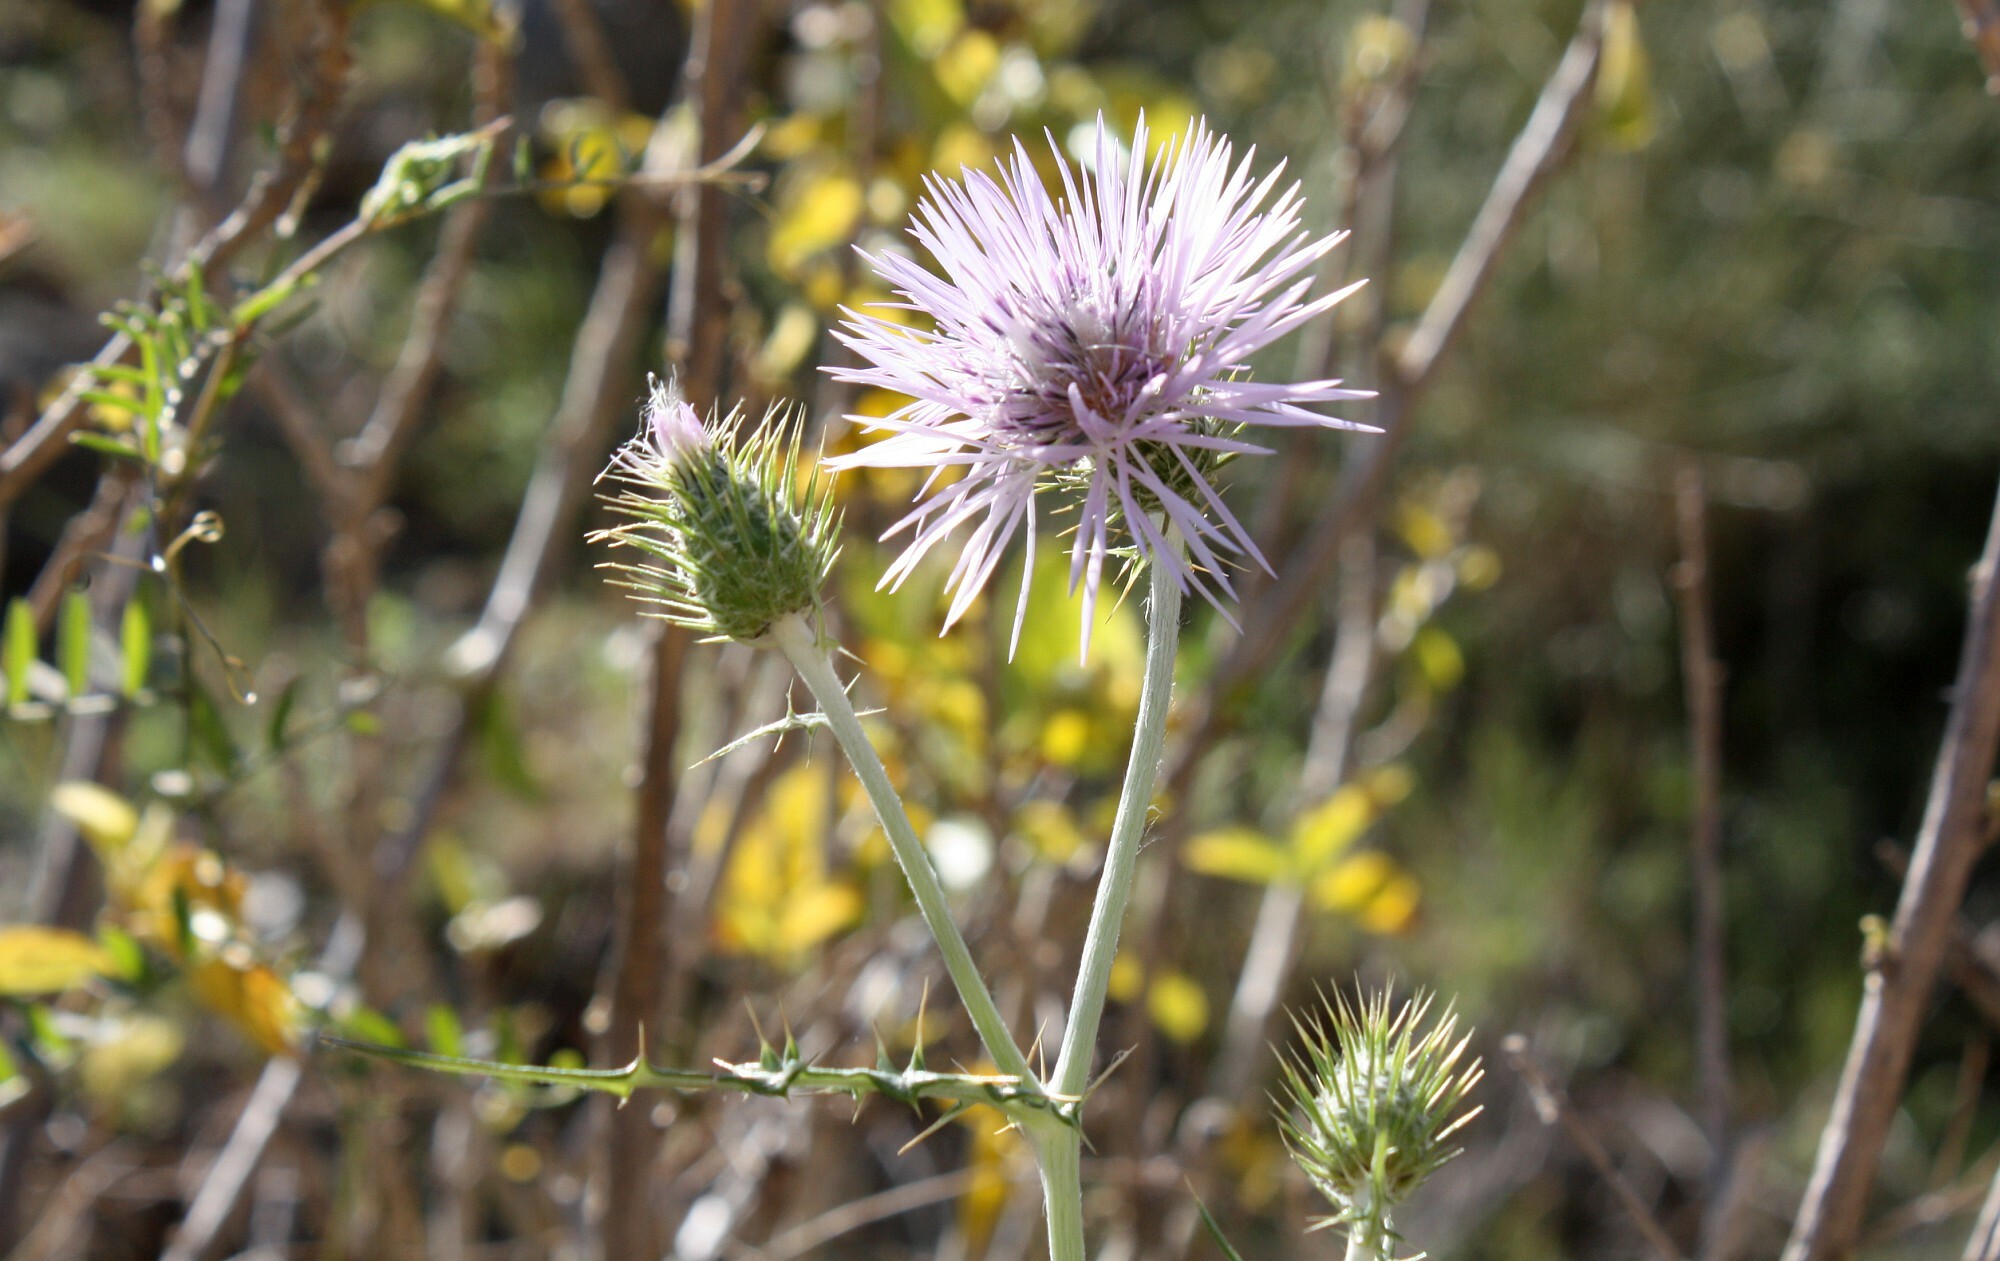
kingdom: Plantae
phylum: Tracheophyta
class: Magnoliopsida
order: Asterales
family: Asteraceae
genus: Galactites
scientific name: Galactites tomentosa
